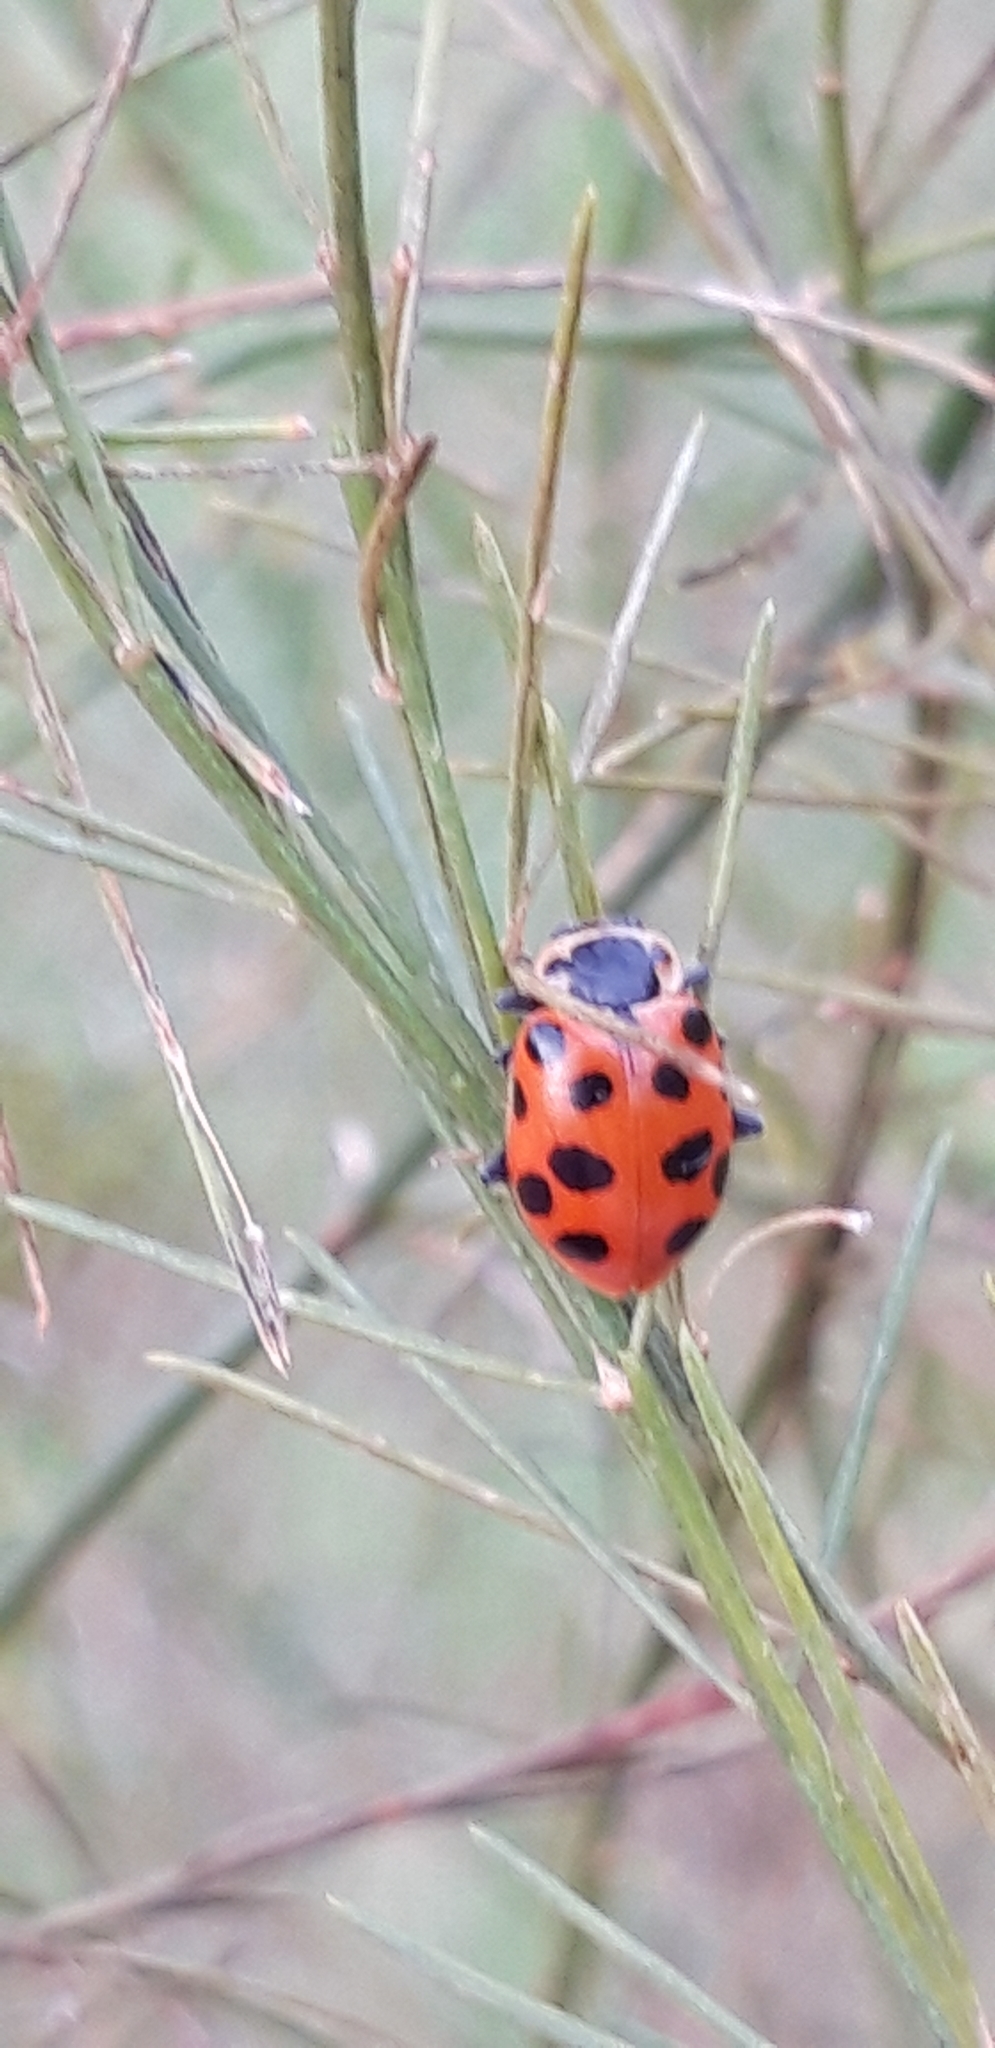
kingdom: Animalia
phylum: Arthropoda
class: Insecta
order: Coleoptera
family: Coccinellidae
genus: Hippodamia
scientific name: Hippodamia tredecimpunctata
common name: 13-spot ladybird
